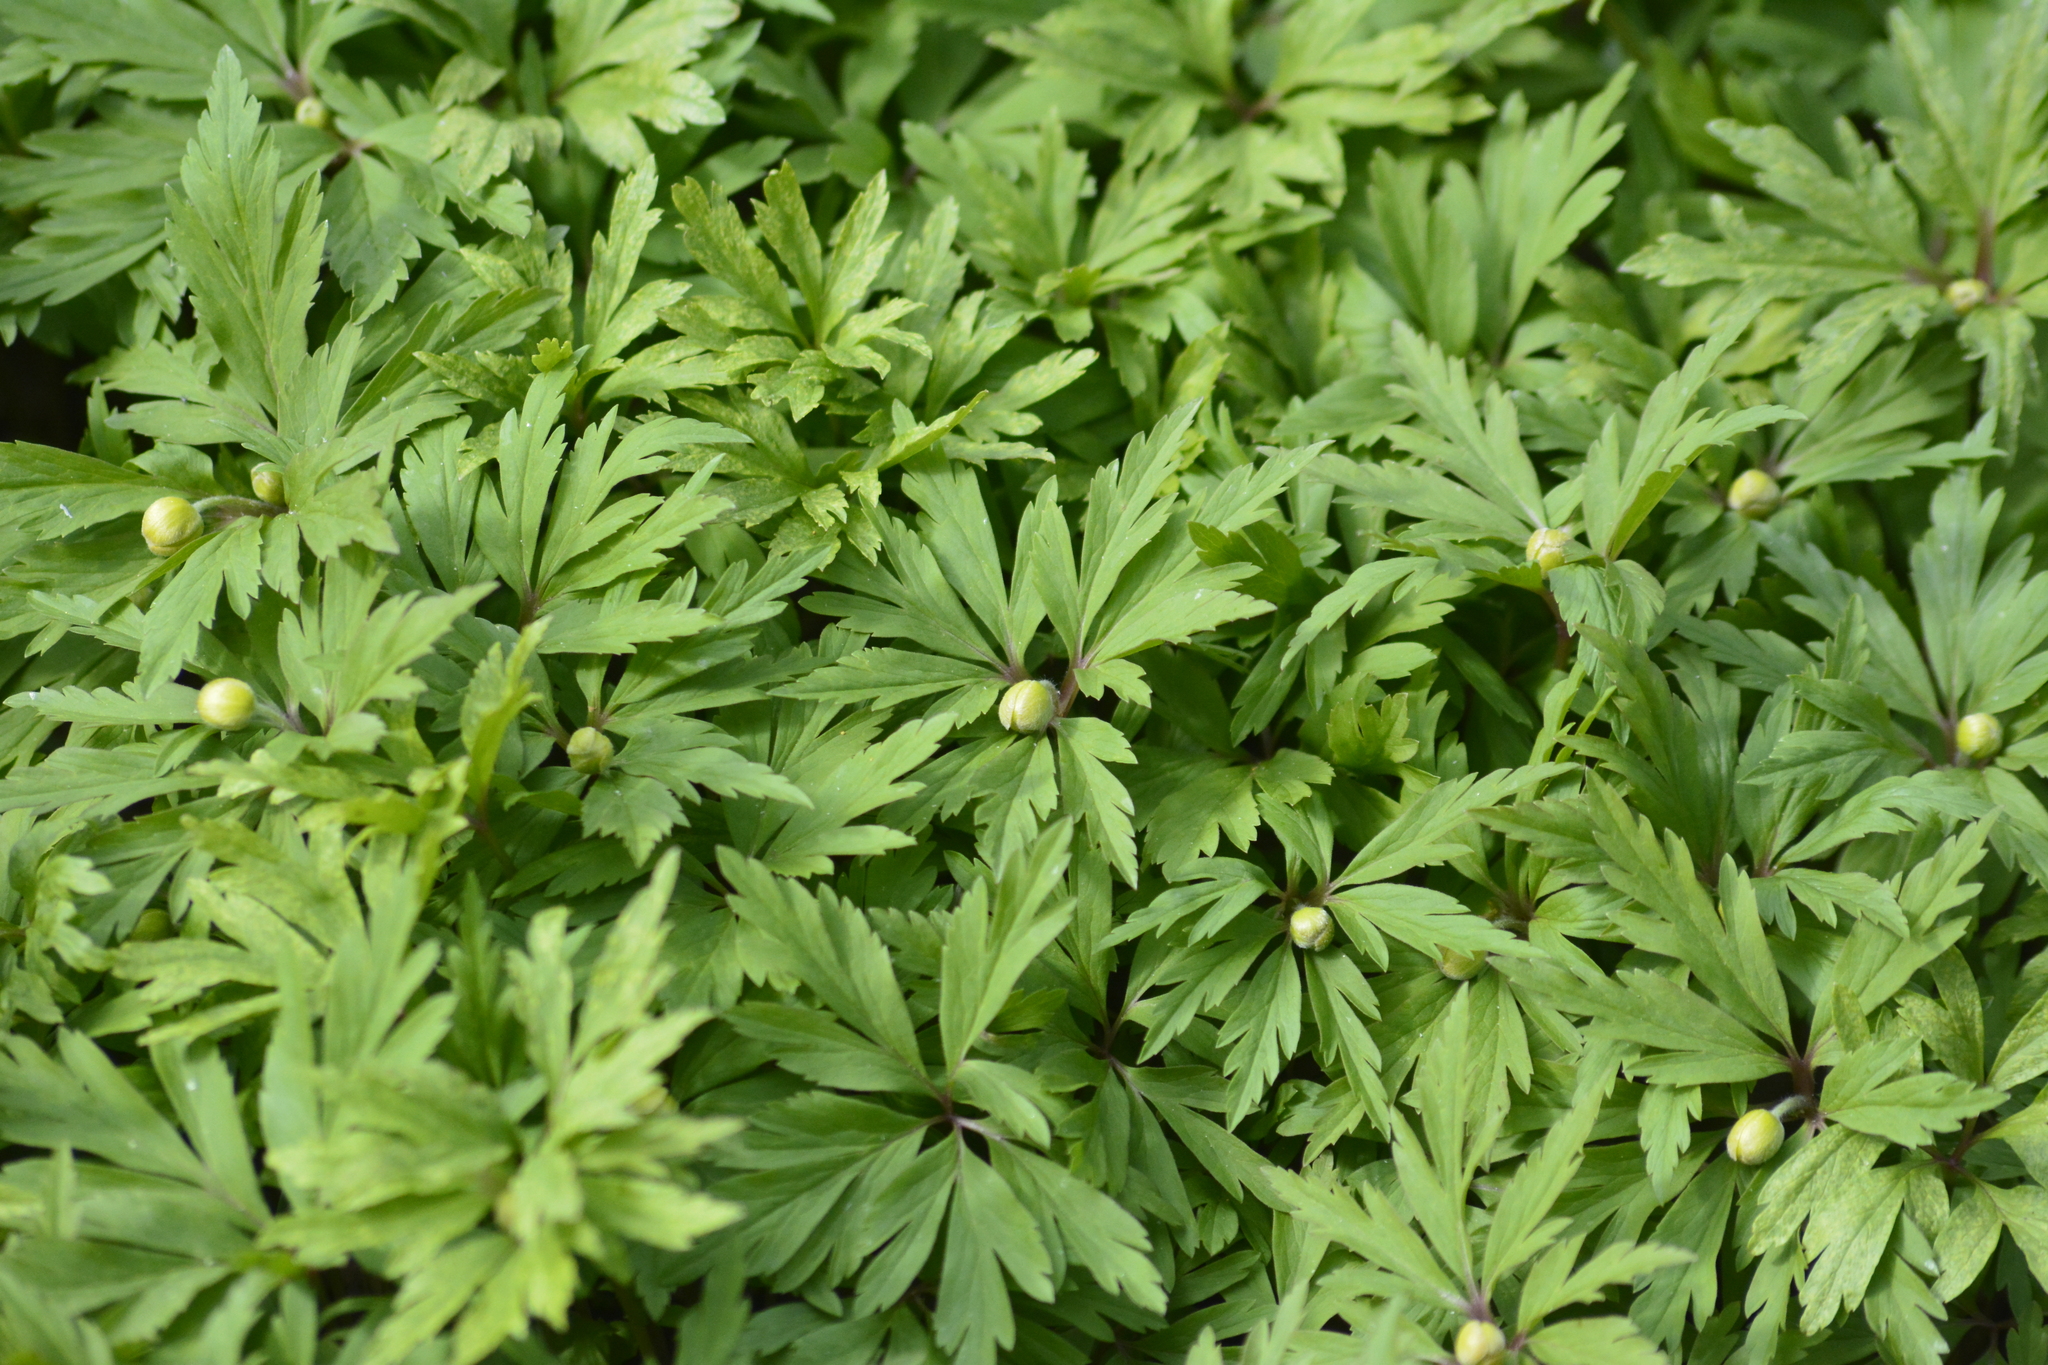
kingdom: Plantae
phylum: Tracheophyta
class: Magnoliopsida
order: Ranunculales
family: Ranunculaceae
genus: Anemone
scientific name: Anemone ranunculoides
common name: Yellow anemone
